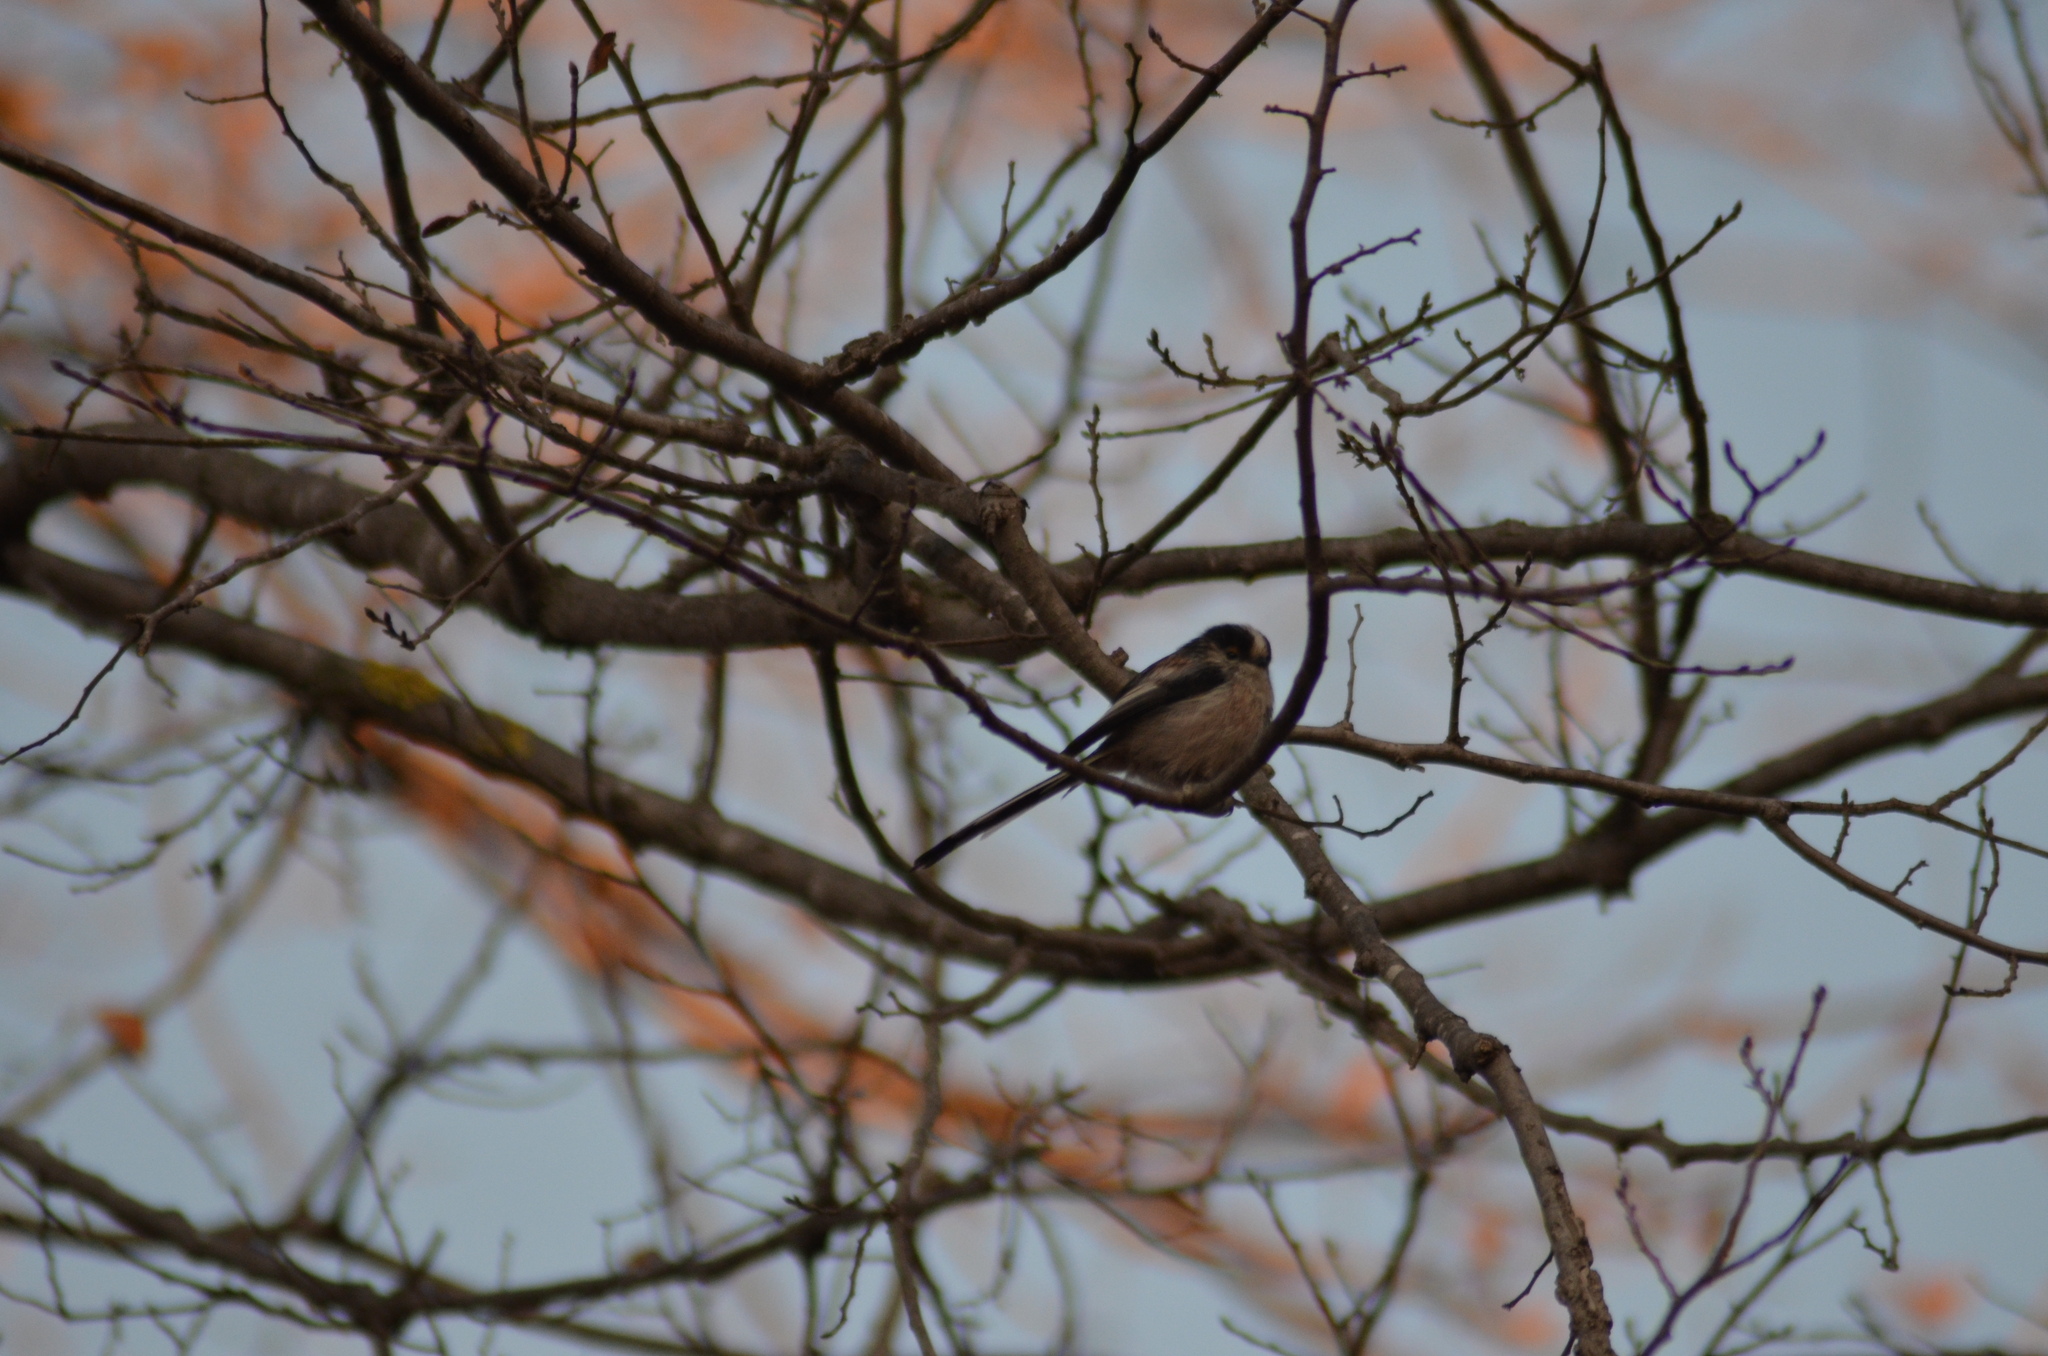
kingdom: Animalia
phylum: Chordata
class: Aves
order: Passeriformes
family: Aegithalidae
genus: Aegithalos
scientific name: Aegithalos caudatus
